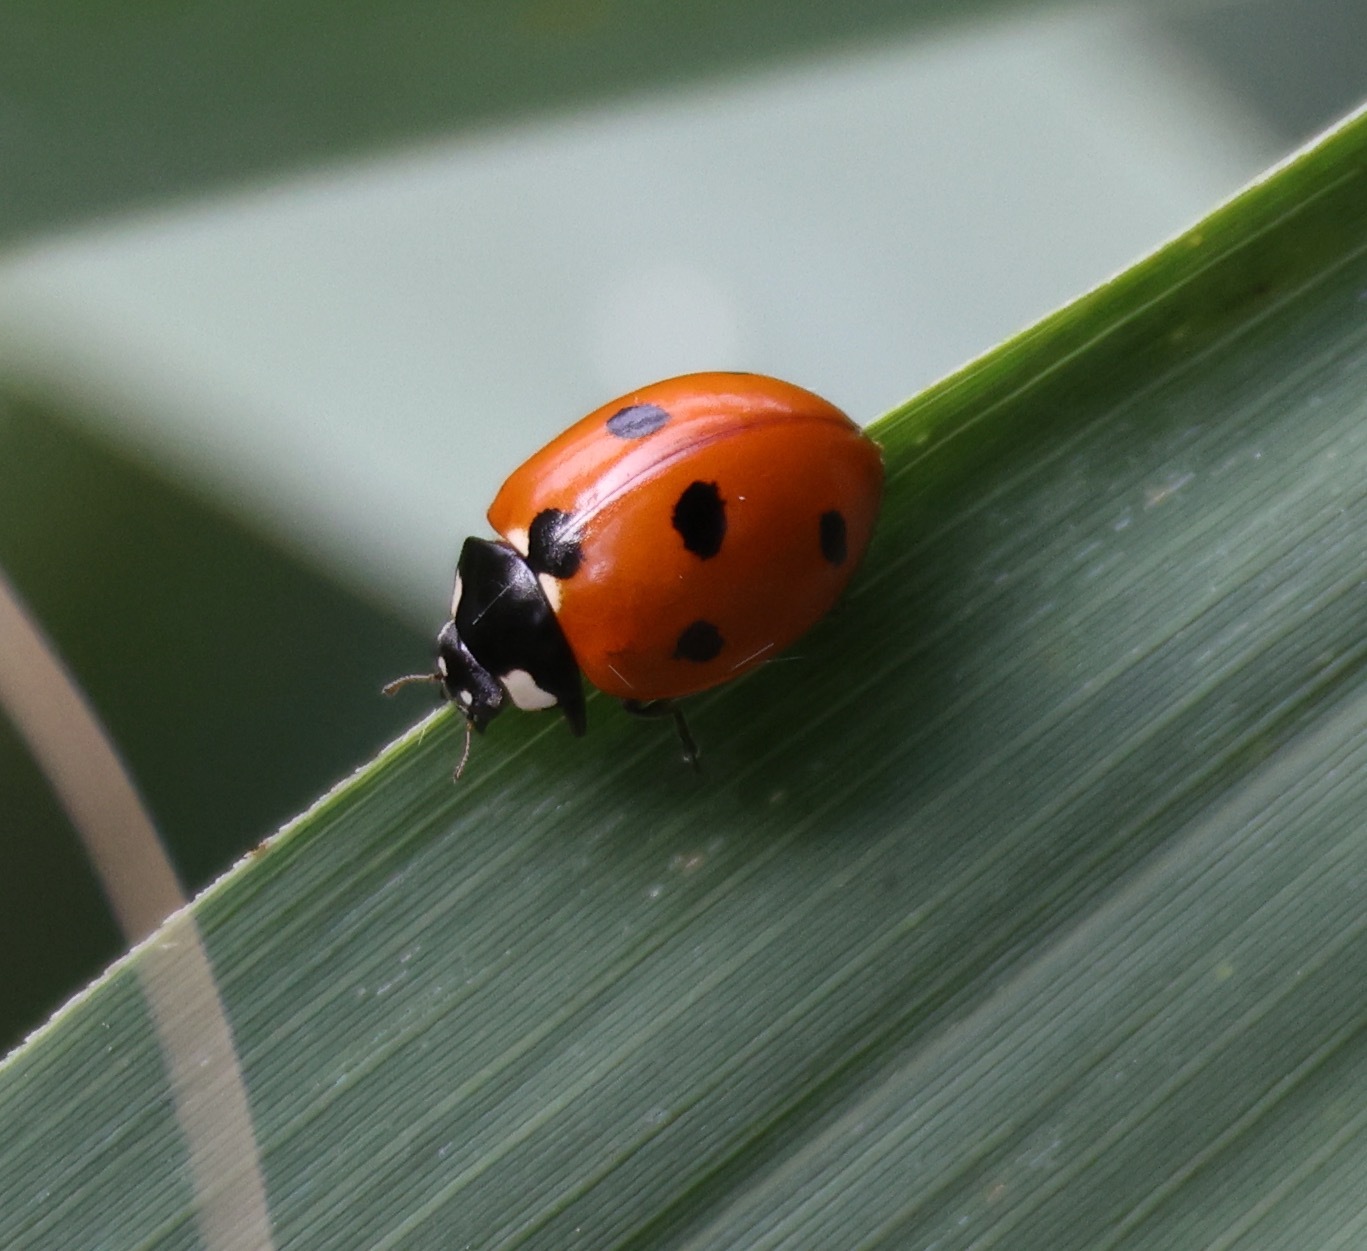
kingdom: Animalia
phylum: Arthropoda
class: Insecta
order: Coleoptera
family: Coccinellidae
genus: Coccinella
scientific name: Coccinella septempunctata
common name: Sevenspotted lady beetle
